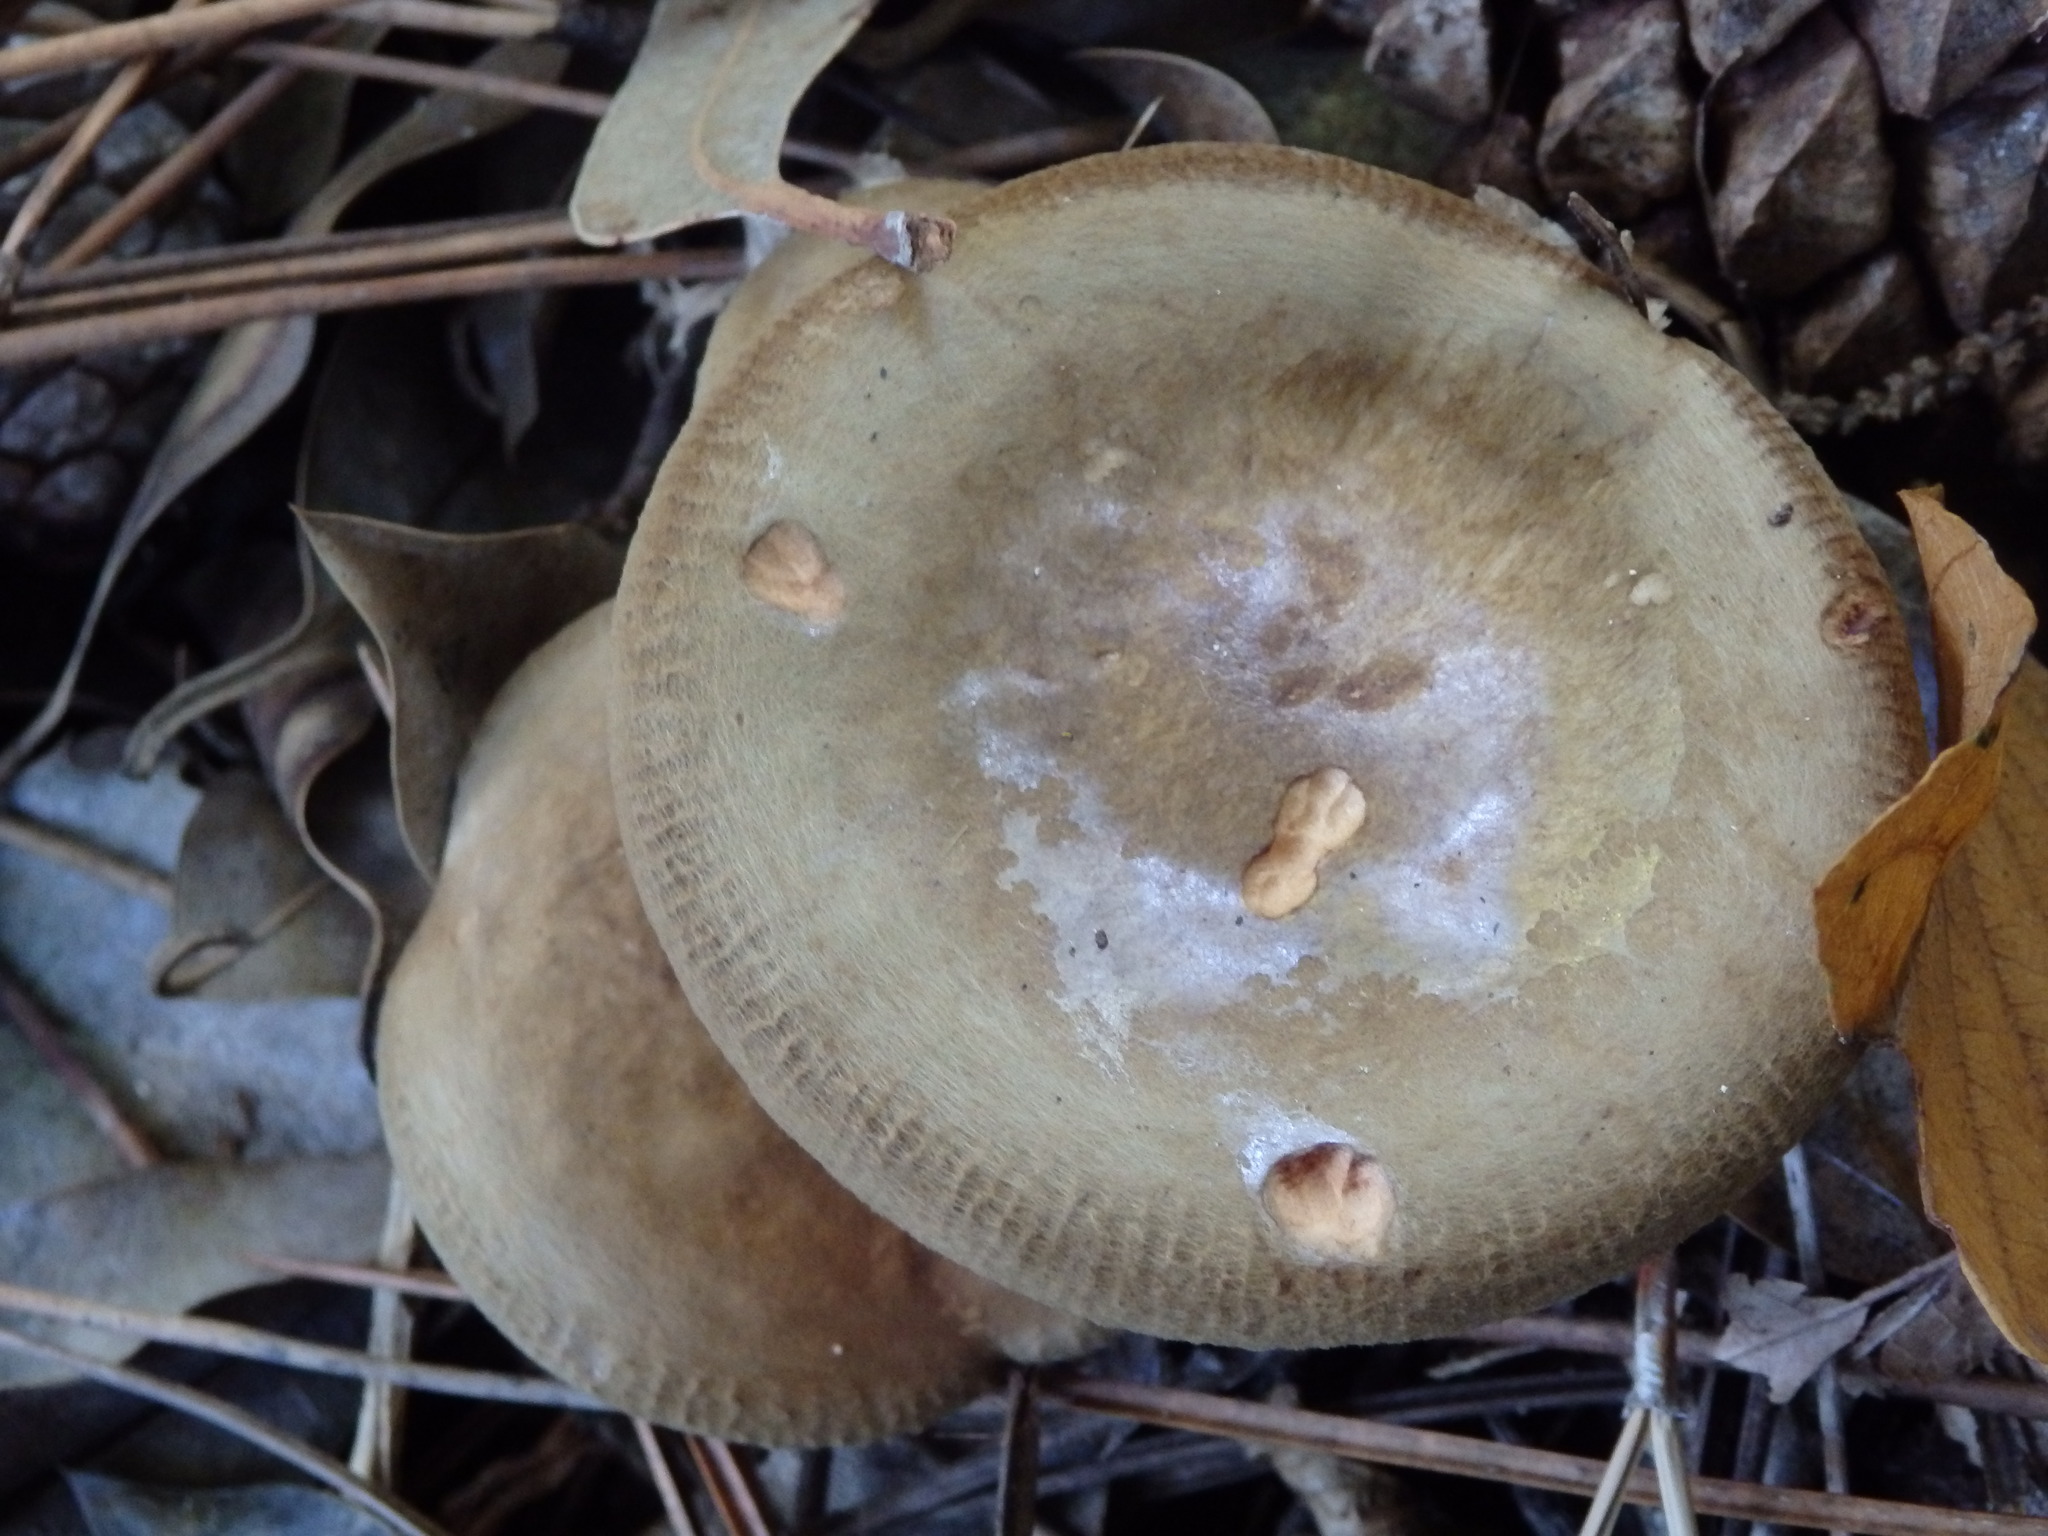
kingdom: Fungi
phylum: Basidiomycota
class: Agaricomycetes
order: Boletales
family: Paxillaceae
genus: Paxillus
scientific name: Paxillus involutus
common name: Brown roll rim
